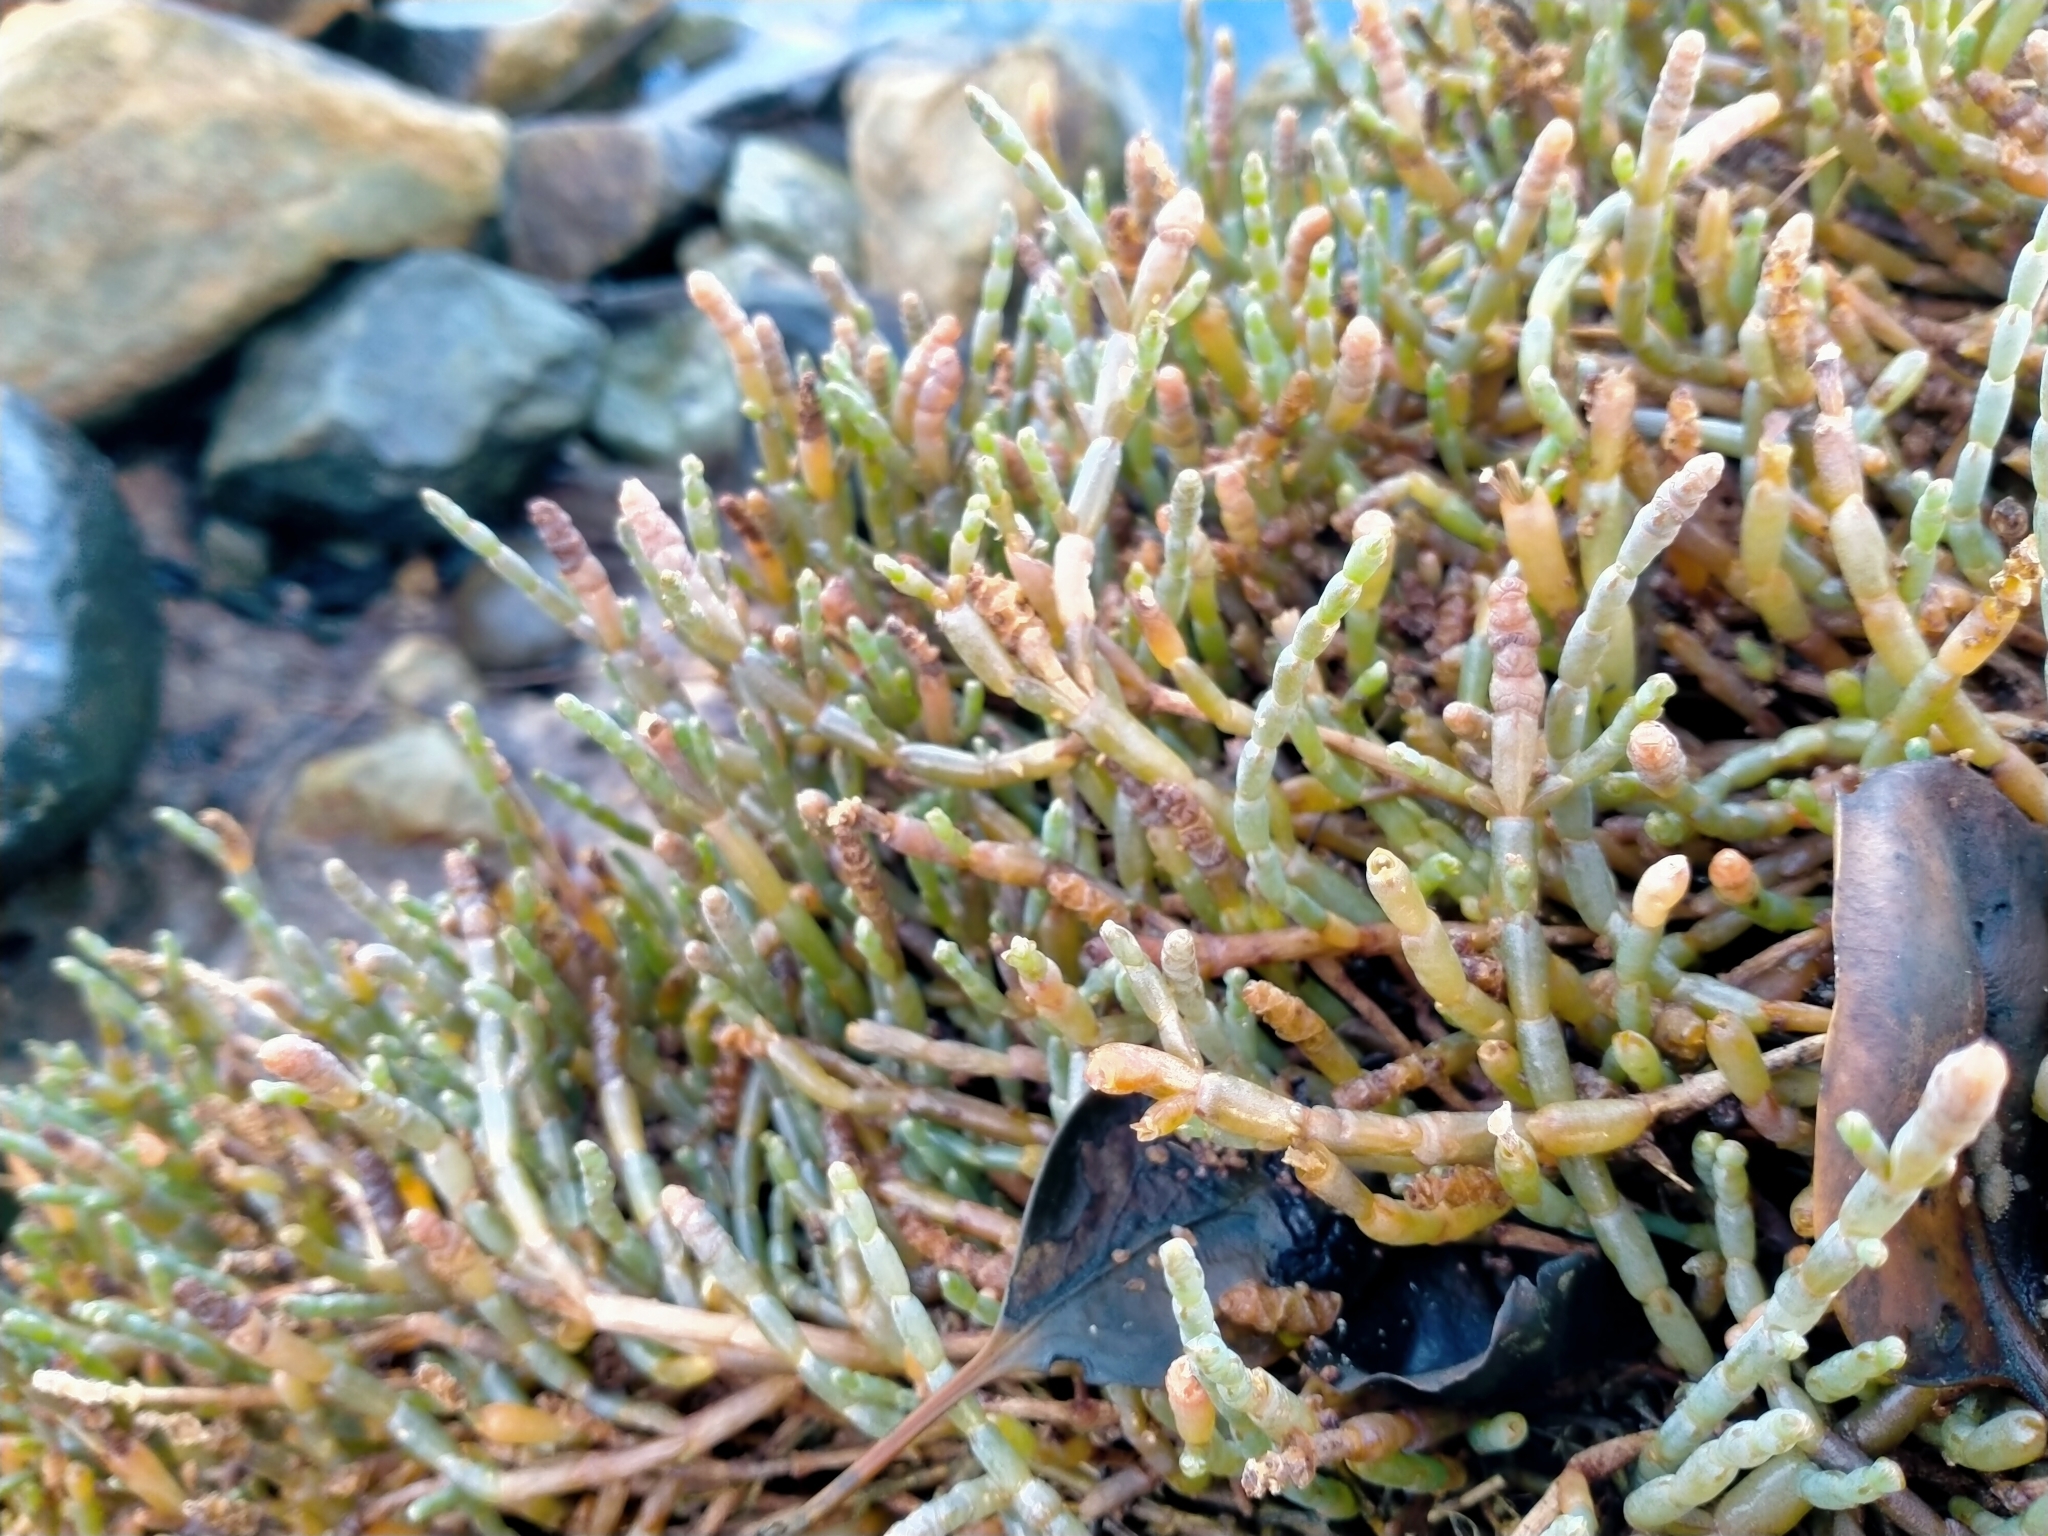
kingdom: Plantae
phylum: Tracheophyta
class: Magnoliopsida
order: Caryophyllales
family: Amaranthaceae
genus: Salicornia
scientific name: Salicornia quinqueflora
